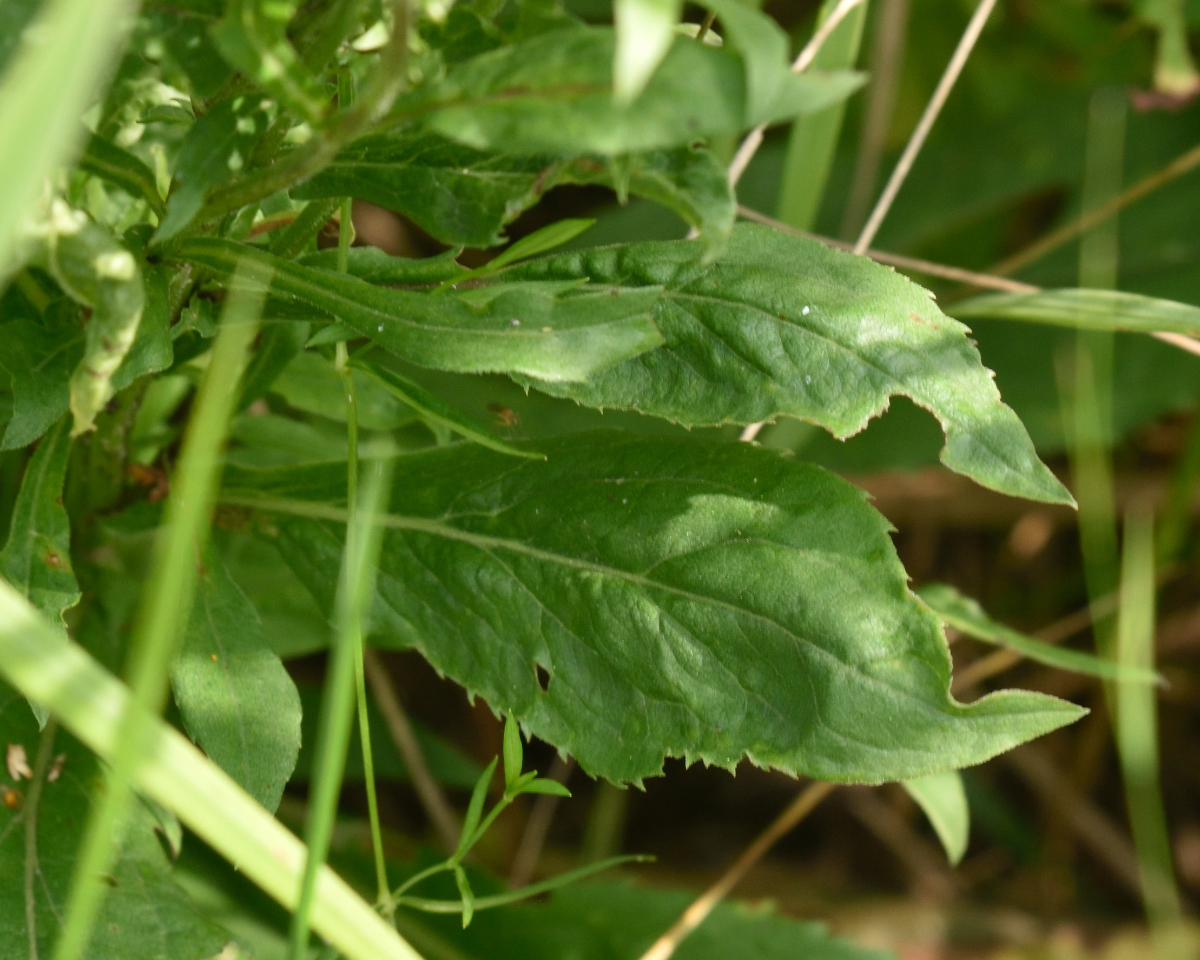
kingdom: Plantae
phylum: Tracheophyta
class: Magnoliopsida
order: Asterales
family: Asteraceae
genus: Solidago
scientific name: Solidago virgaurea
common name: Goldenrod
